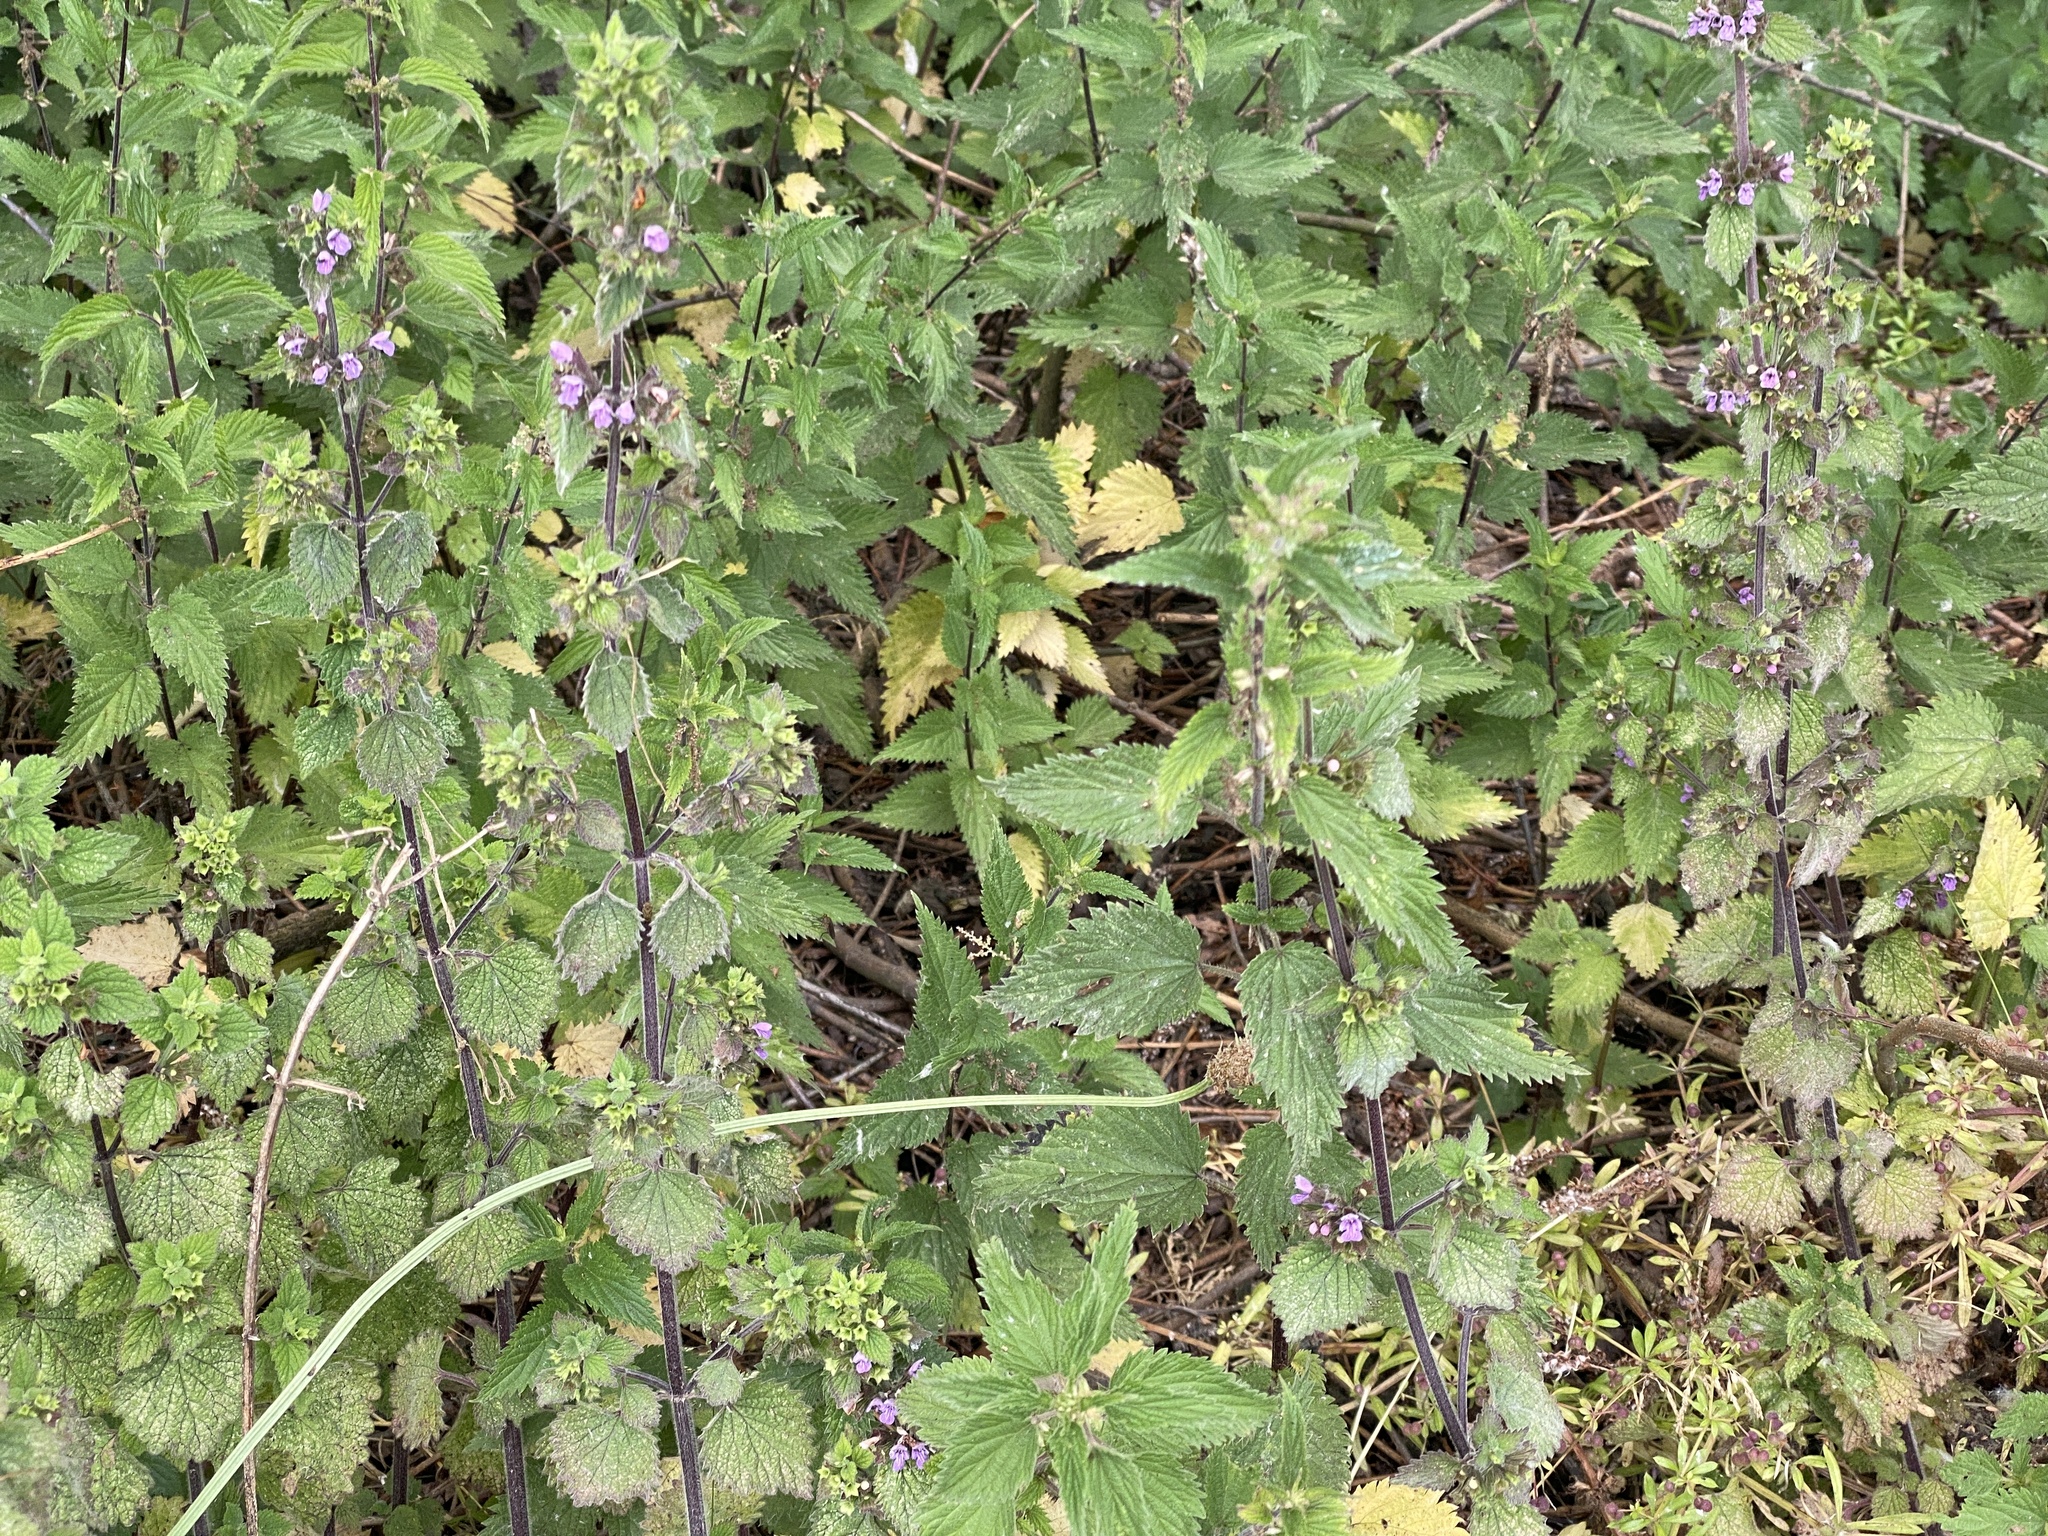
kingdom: Plantae
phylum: Tracheophyta
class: Magnoliopsida
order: Lamiales
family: Lamiaceae
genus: Ballota
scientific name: Ballota nigra
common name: Black horehound
